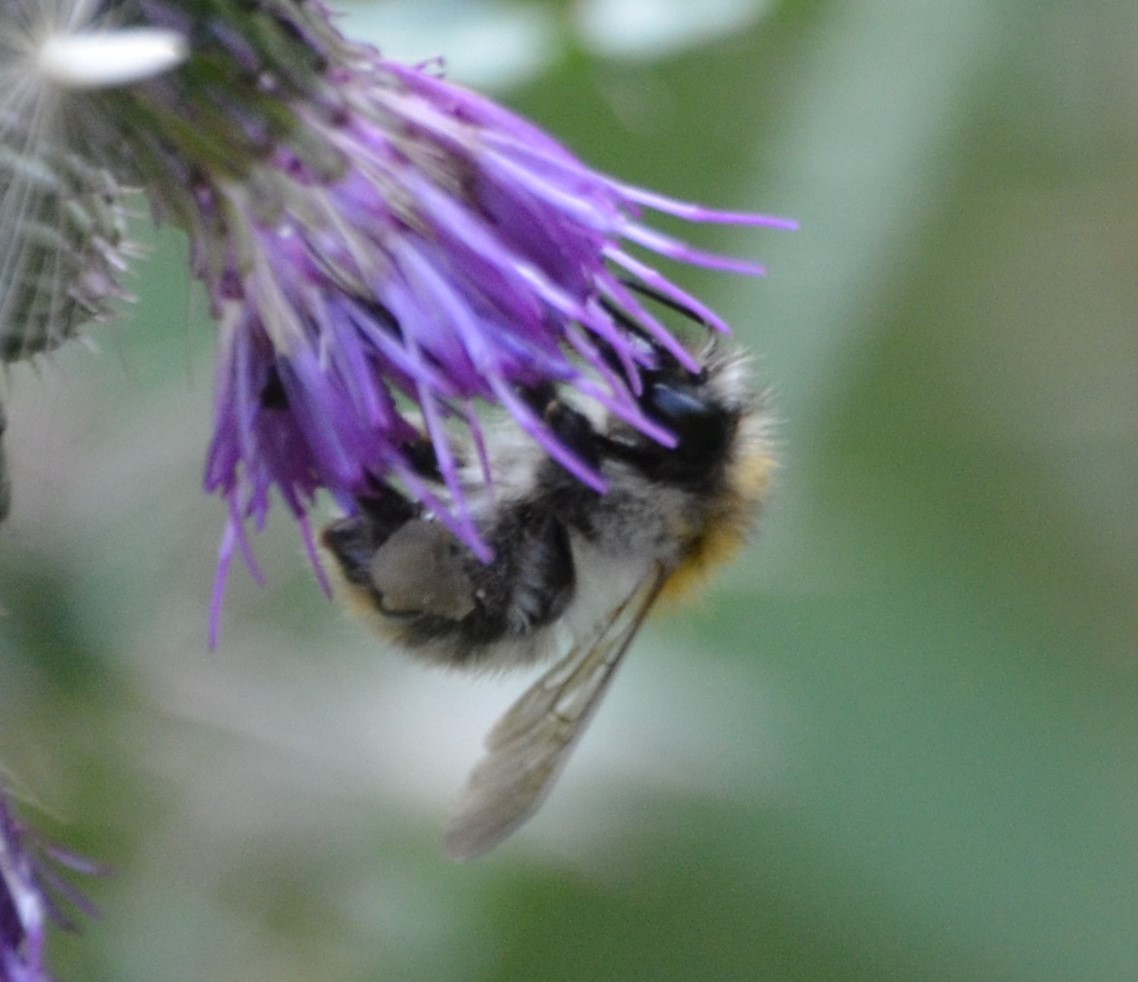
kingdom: Animalia
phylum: Arthropoda
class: Insecta
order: Hymenoptera
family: Apidae
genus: Bombus
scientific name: Bombus pascuorum
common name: Common carder bee
